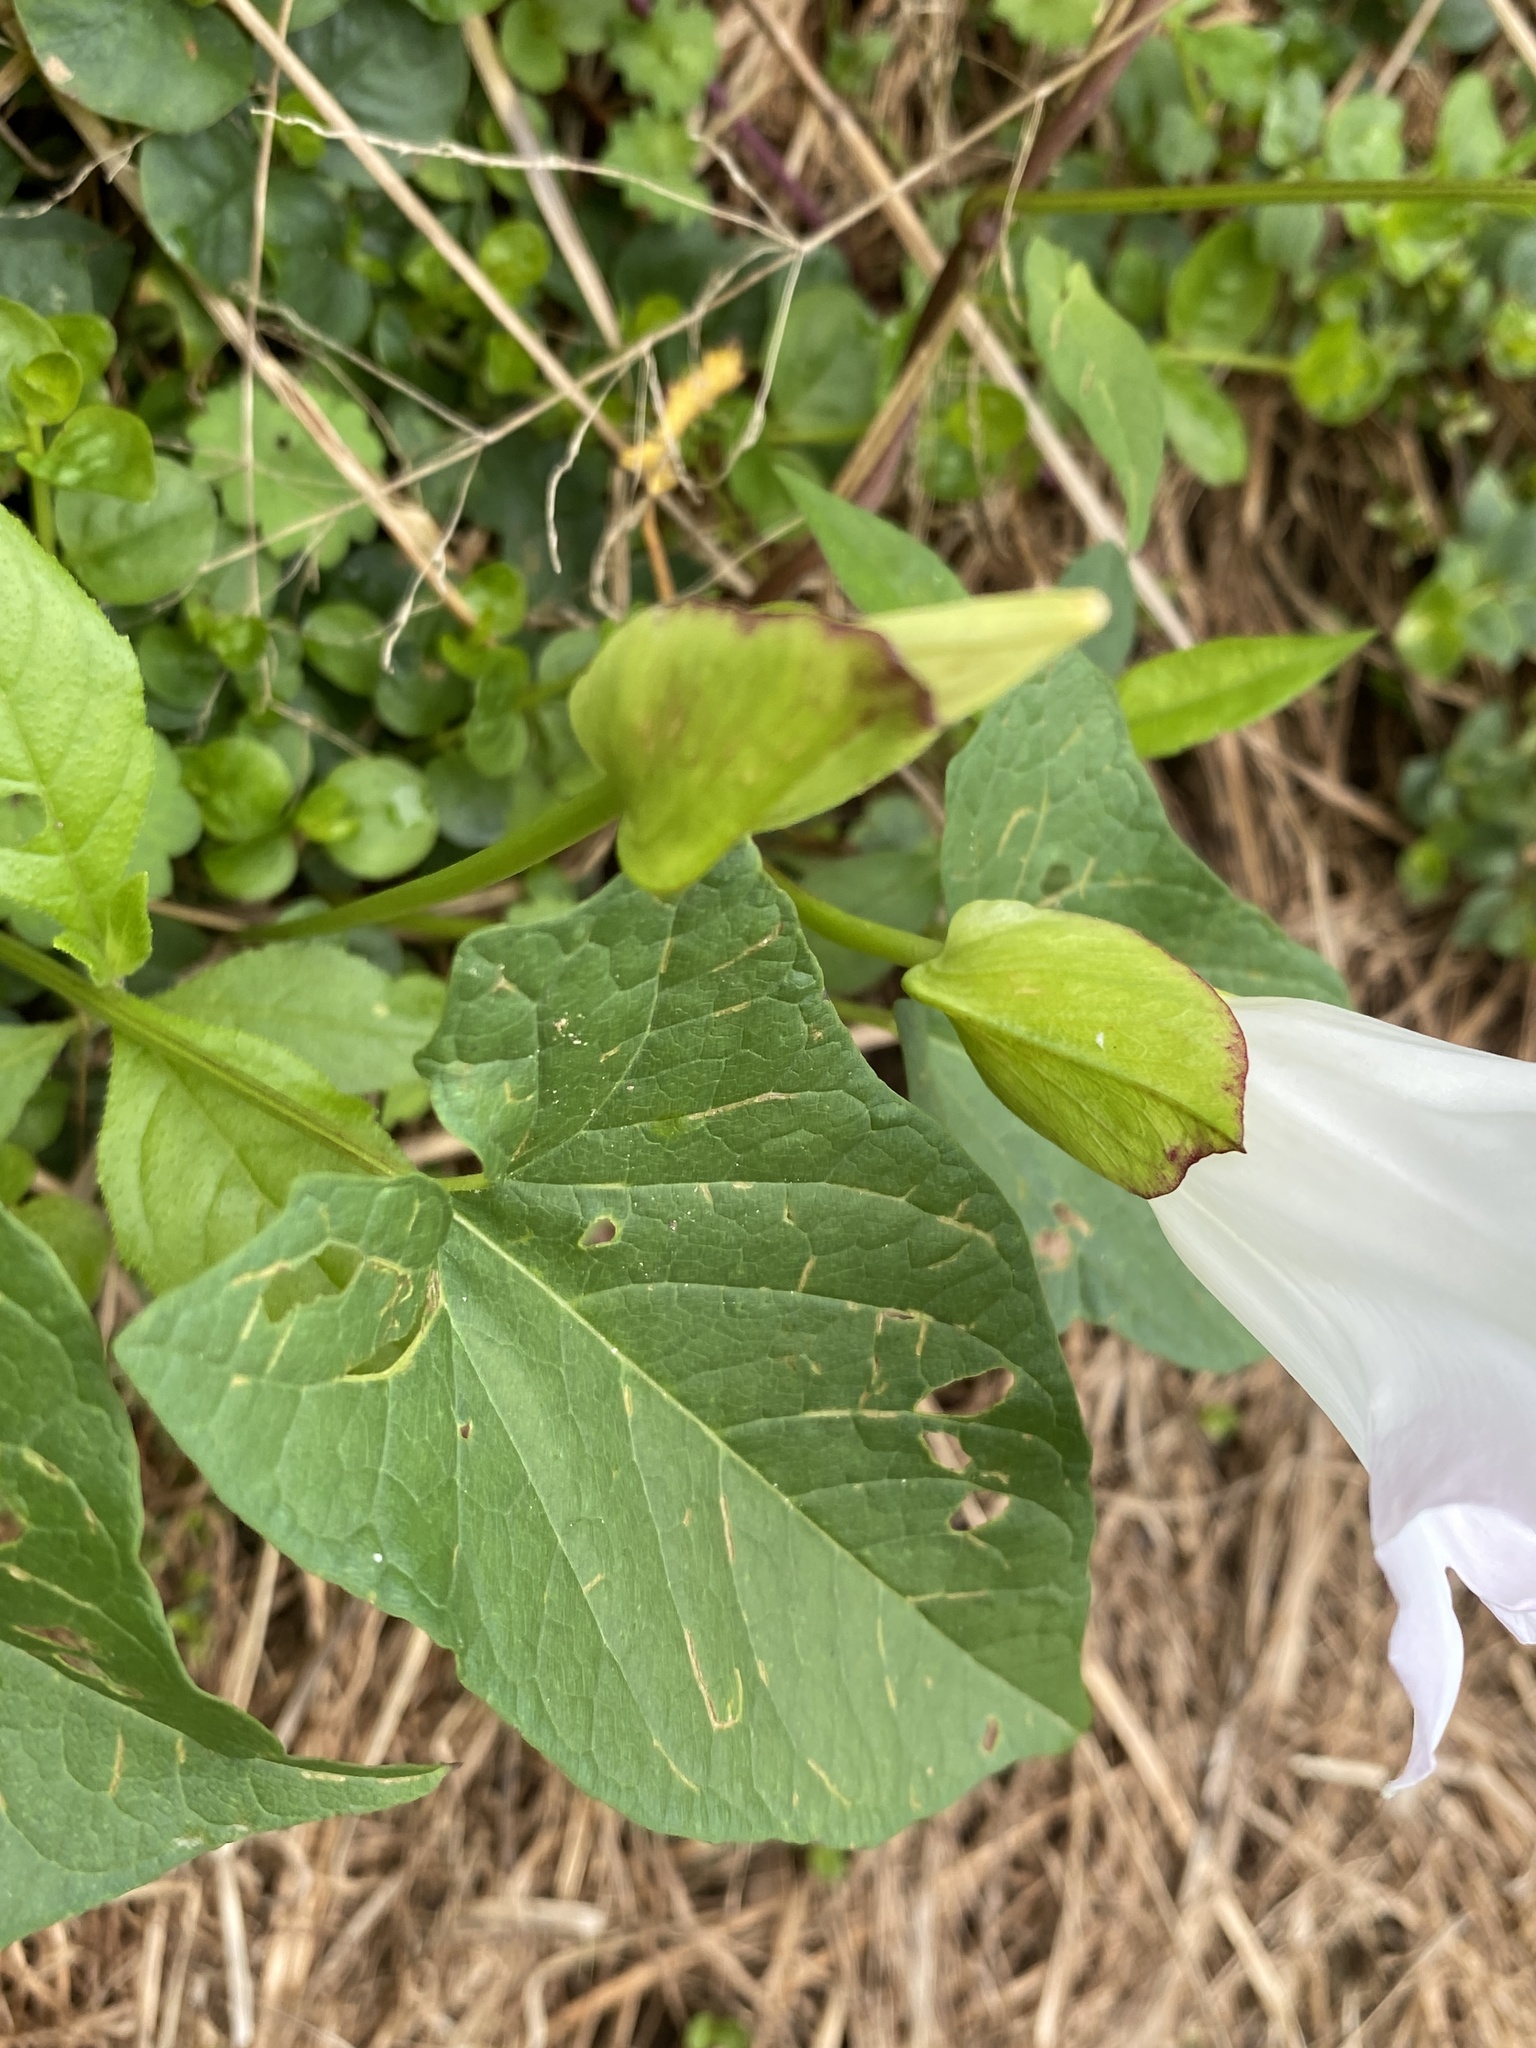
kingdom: Plantae
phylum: Tracheophyta
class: Magnoliopsida
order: Solanales
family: Convolvulaceae
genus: Calystegia
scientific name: Calystegia sepium
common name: Hedge bindweed
